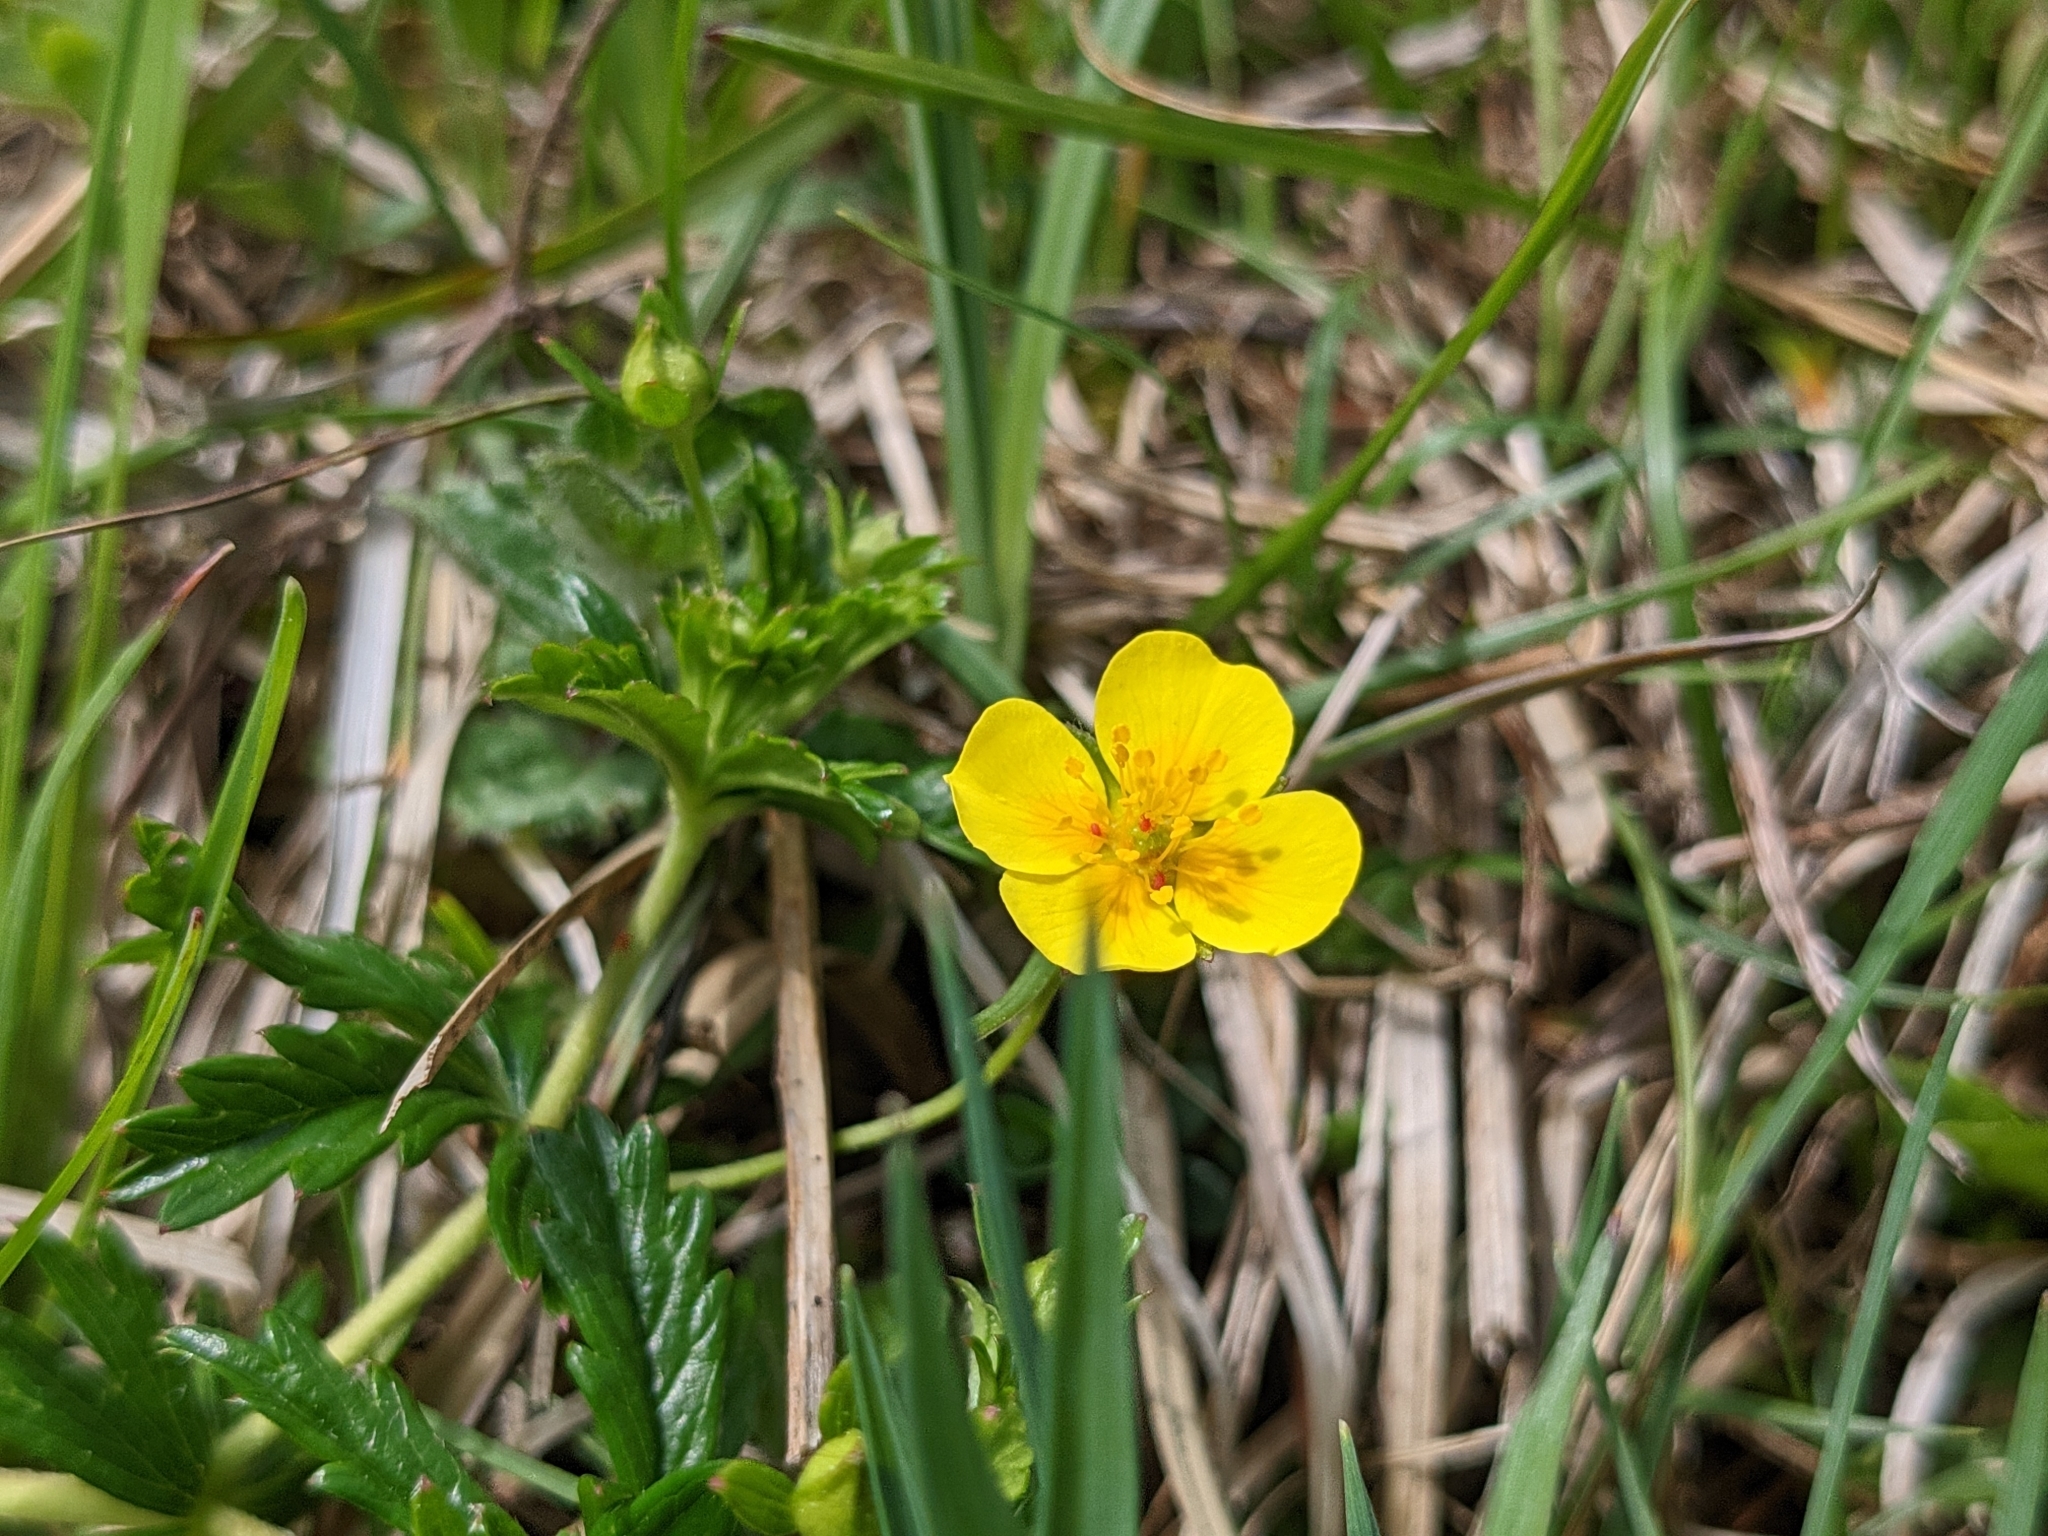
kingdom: Plantae
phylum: Tracheophyta
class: Magnoliopsida
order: Rosales
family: Rosaceae
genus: Potentilla
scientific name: Potentilla erecta
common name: Tormentil
